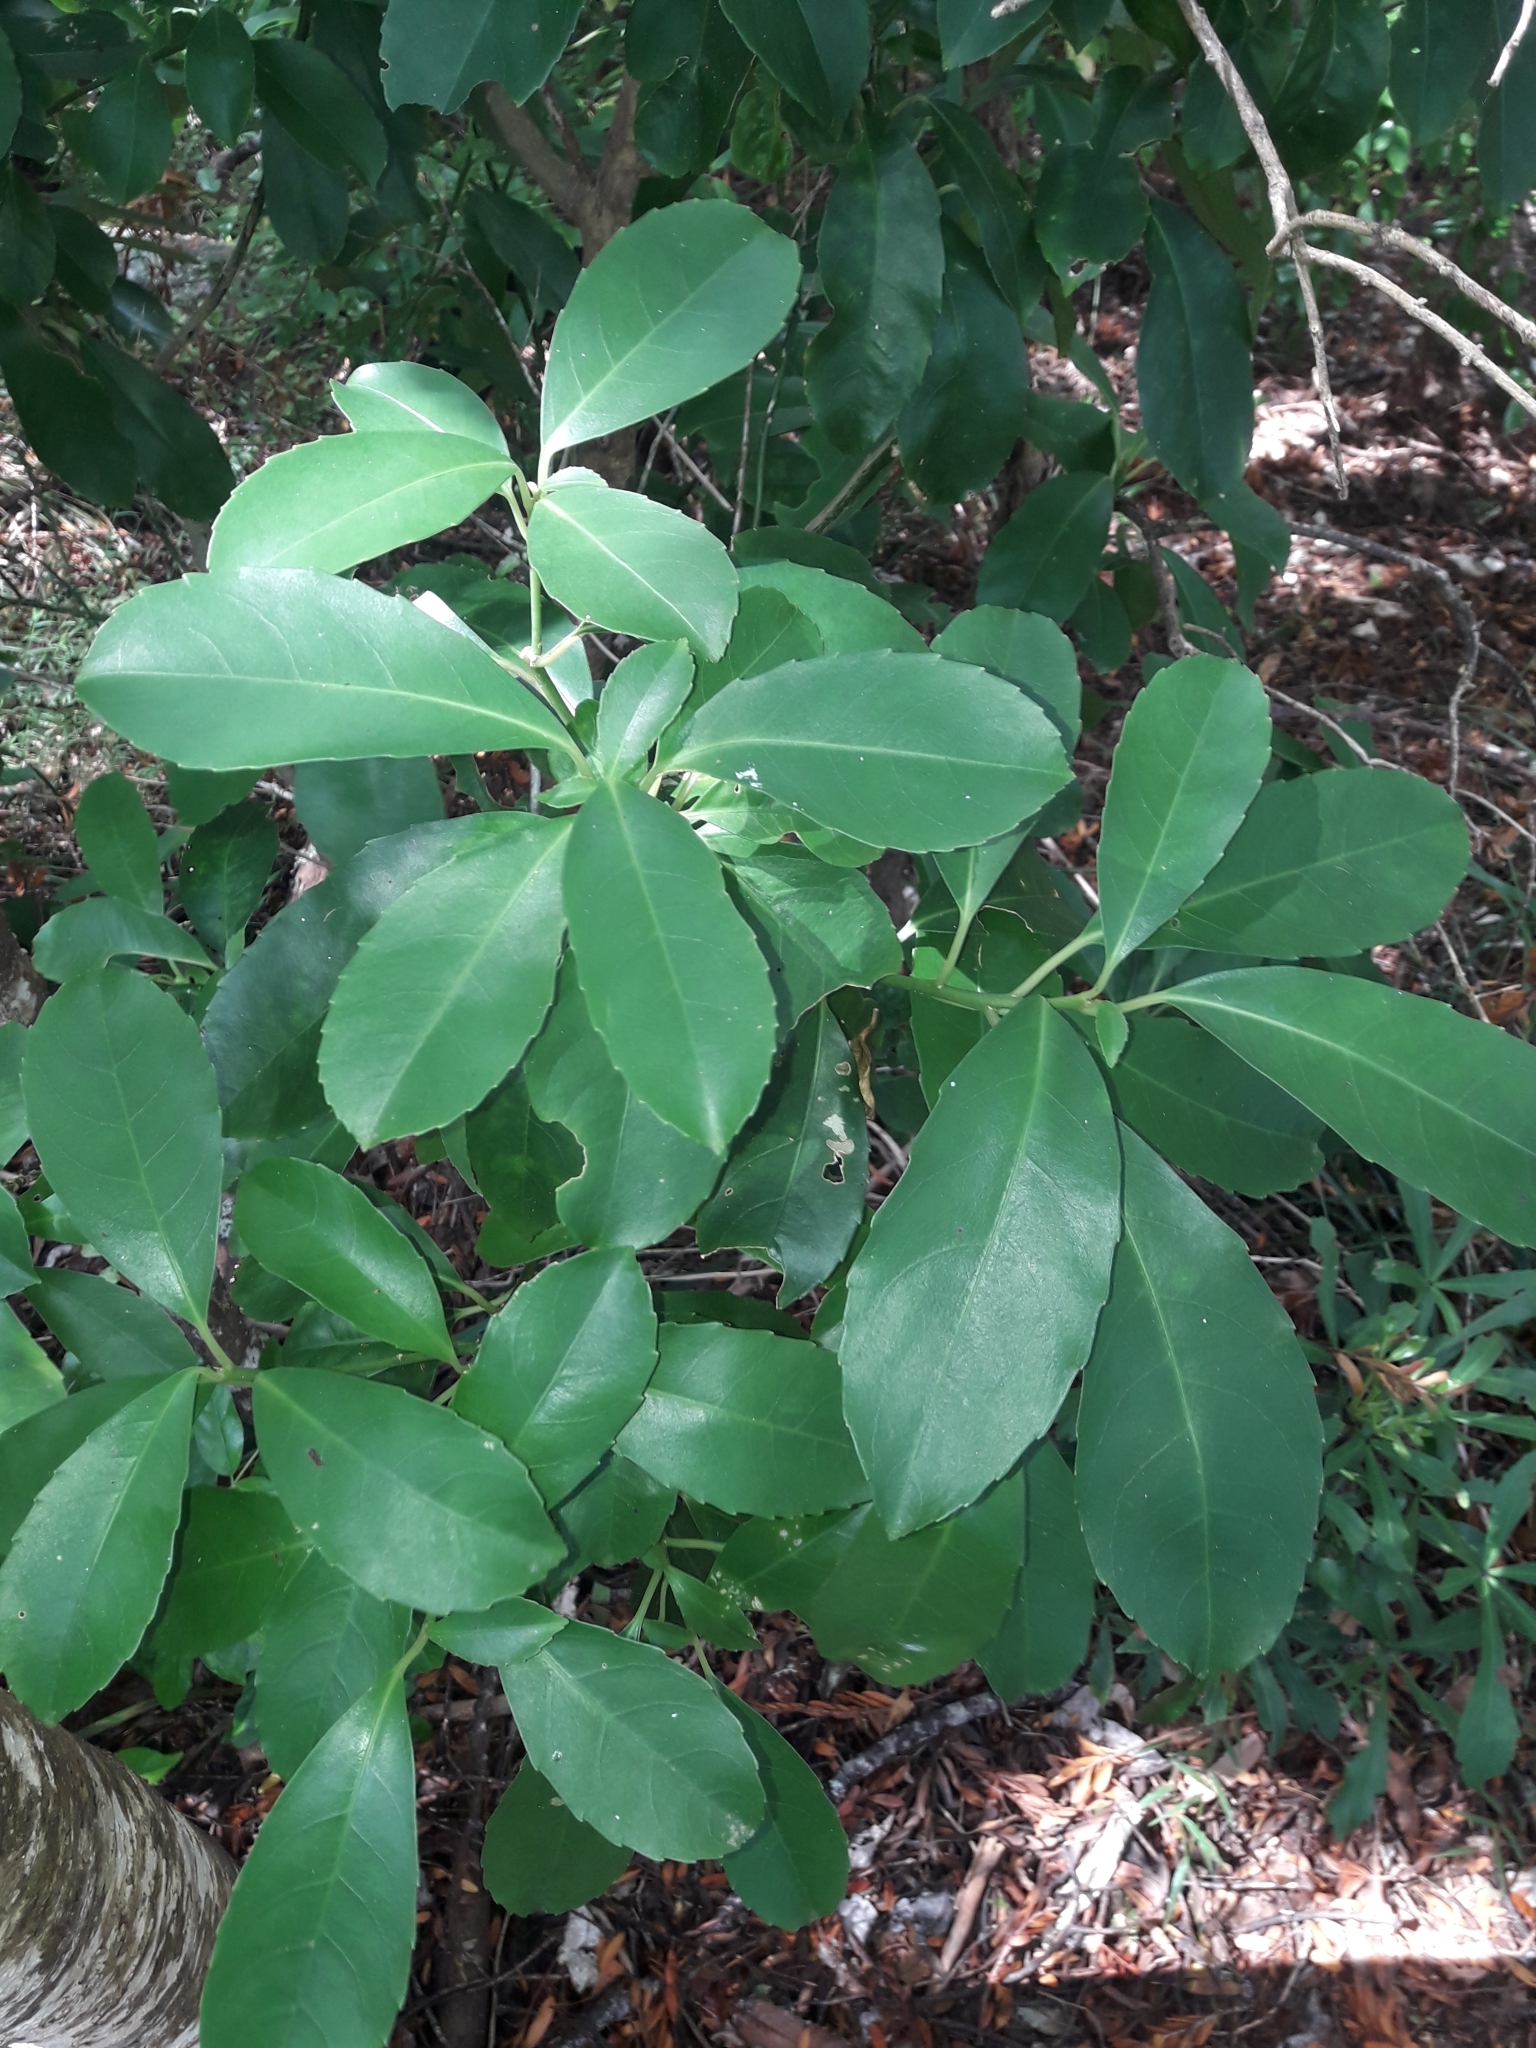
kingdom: Plantae
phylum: Tracheophyta
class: Magnoliopsida
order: Malpighiales
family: Violaceae
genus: Melicytus
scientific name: Melicytus macrophyllus
